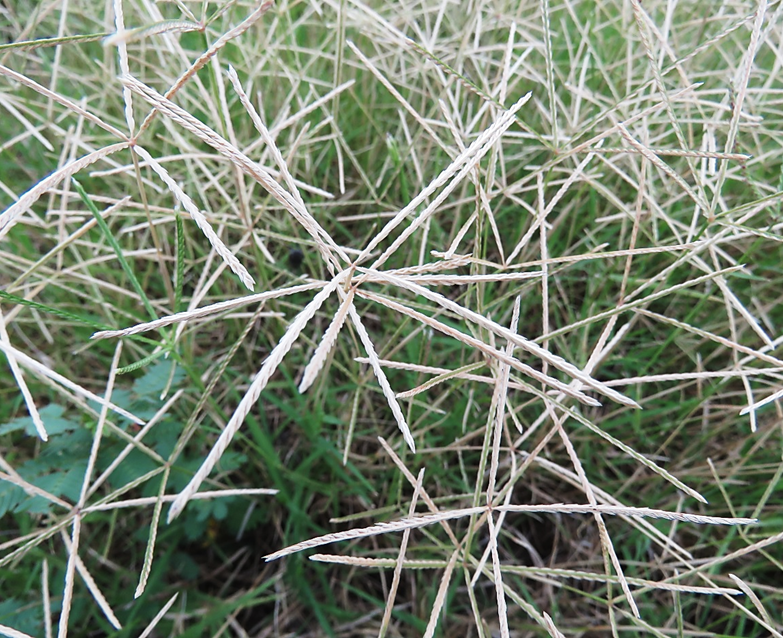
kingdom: Plantae
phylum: Tracheophyta
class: Liliopsida
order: Poales
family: Poaceae
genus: Cynodon
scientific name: Cynodon dactylon
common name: Bermuda grass
